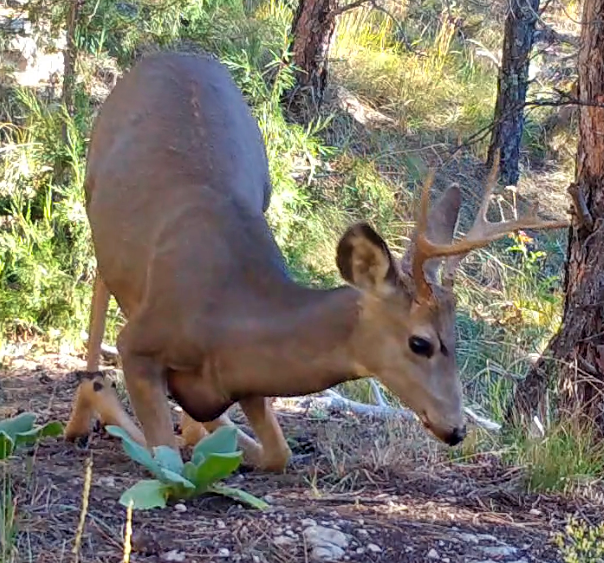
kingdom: Animalia
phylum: Chordata
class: Mammalia
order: Artiodactyla
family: Cervidae
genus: Odocoileus
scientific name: Odocoileus hemionus
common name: Mule deer
